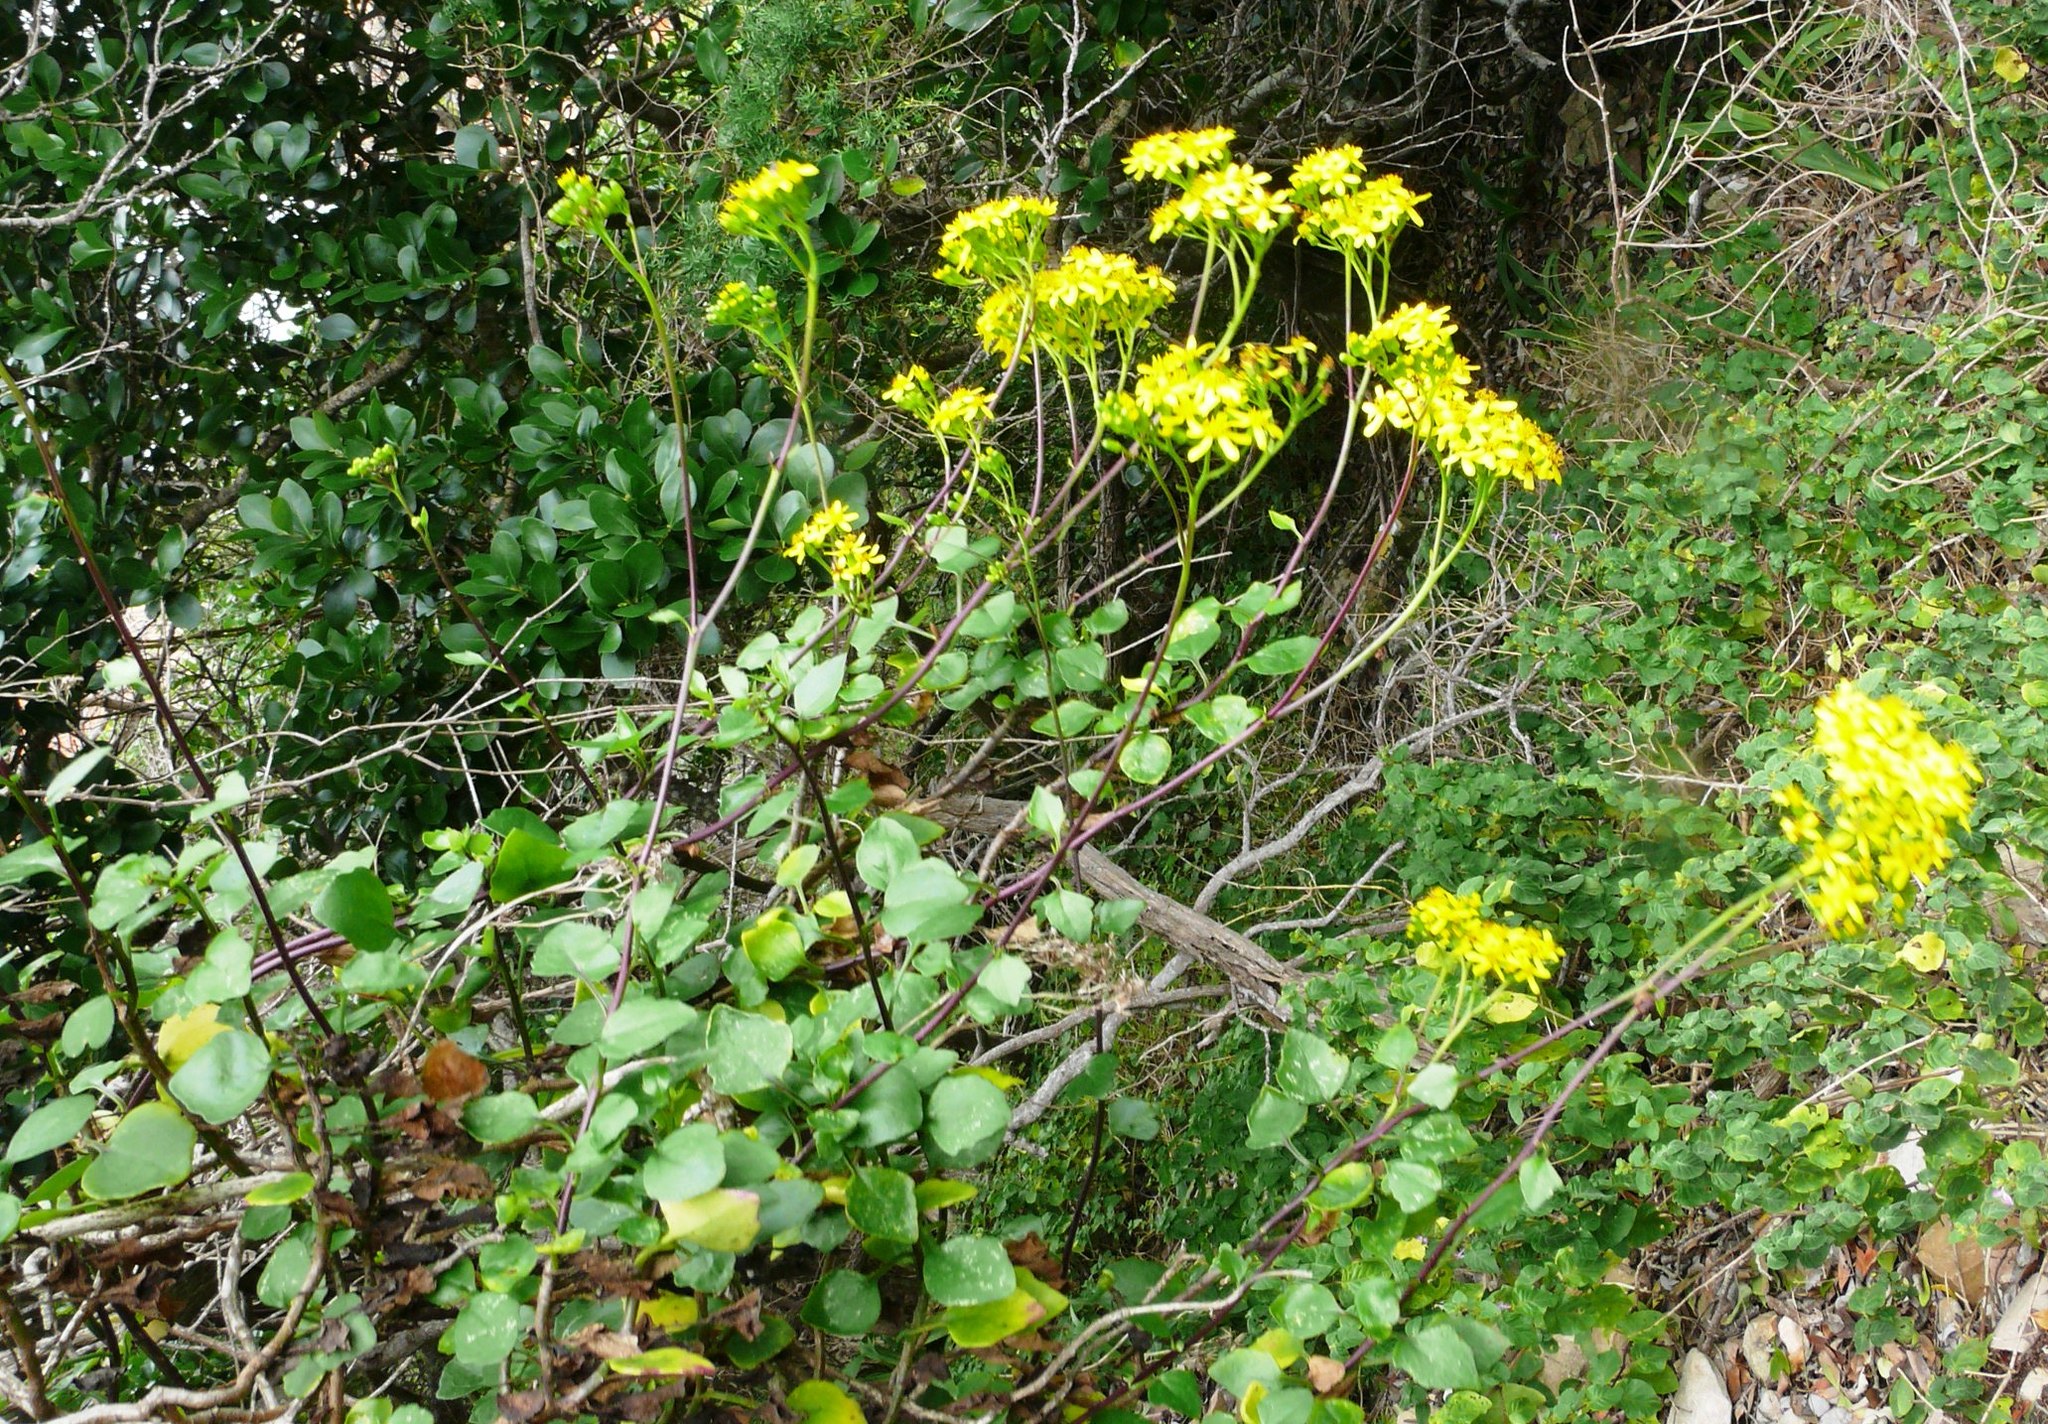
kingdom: Plantae
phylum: Tracheophyta
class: Magnoliopsida
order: Asterales
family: Asteraceae
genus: Senecio
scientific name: Senecio angulatus
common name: Climbing groundsel
